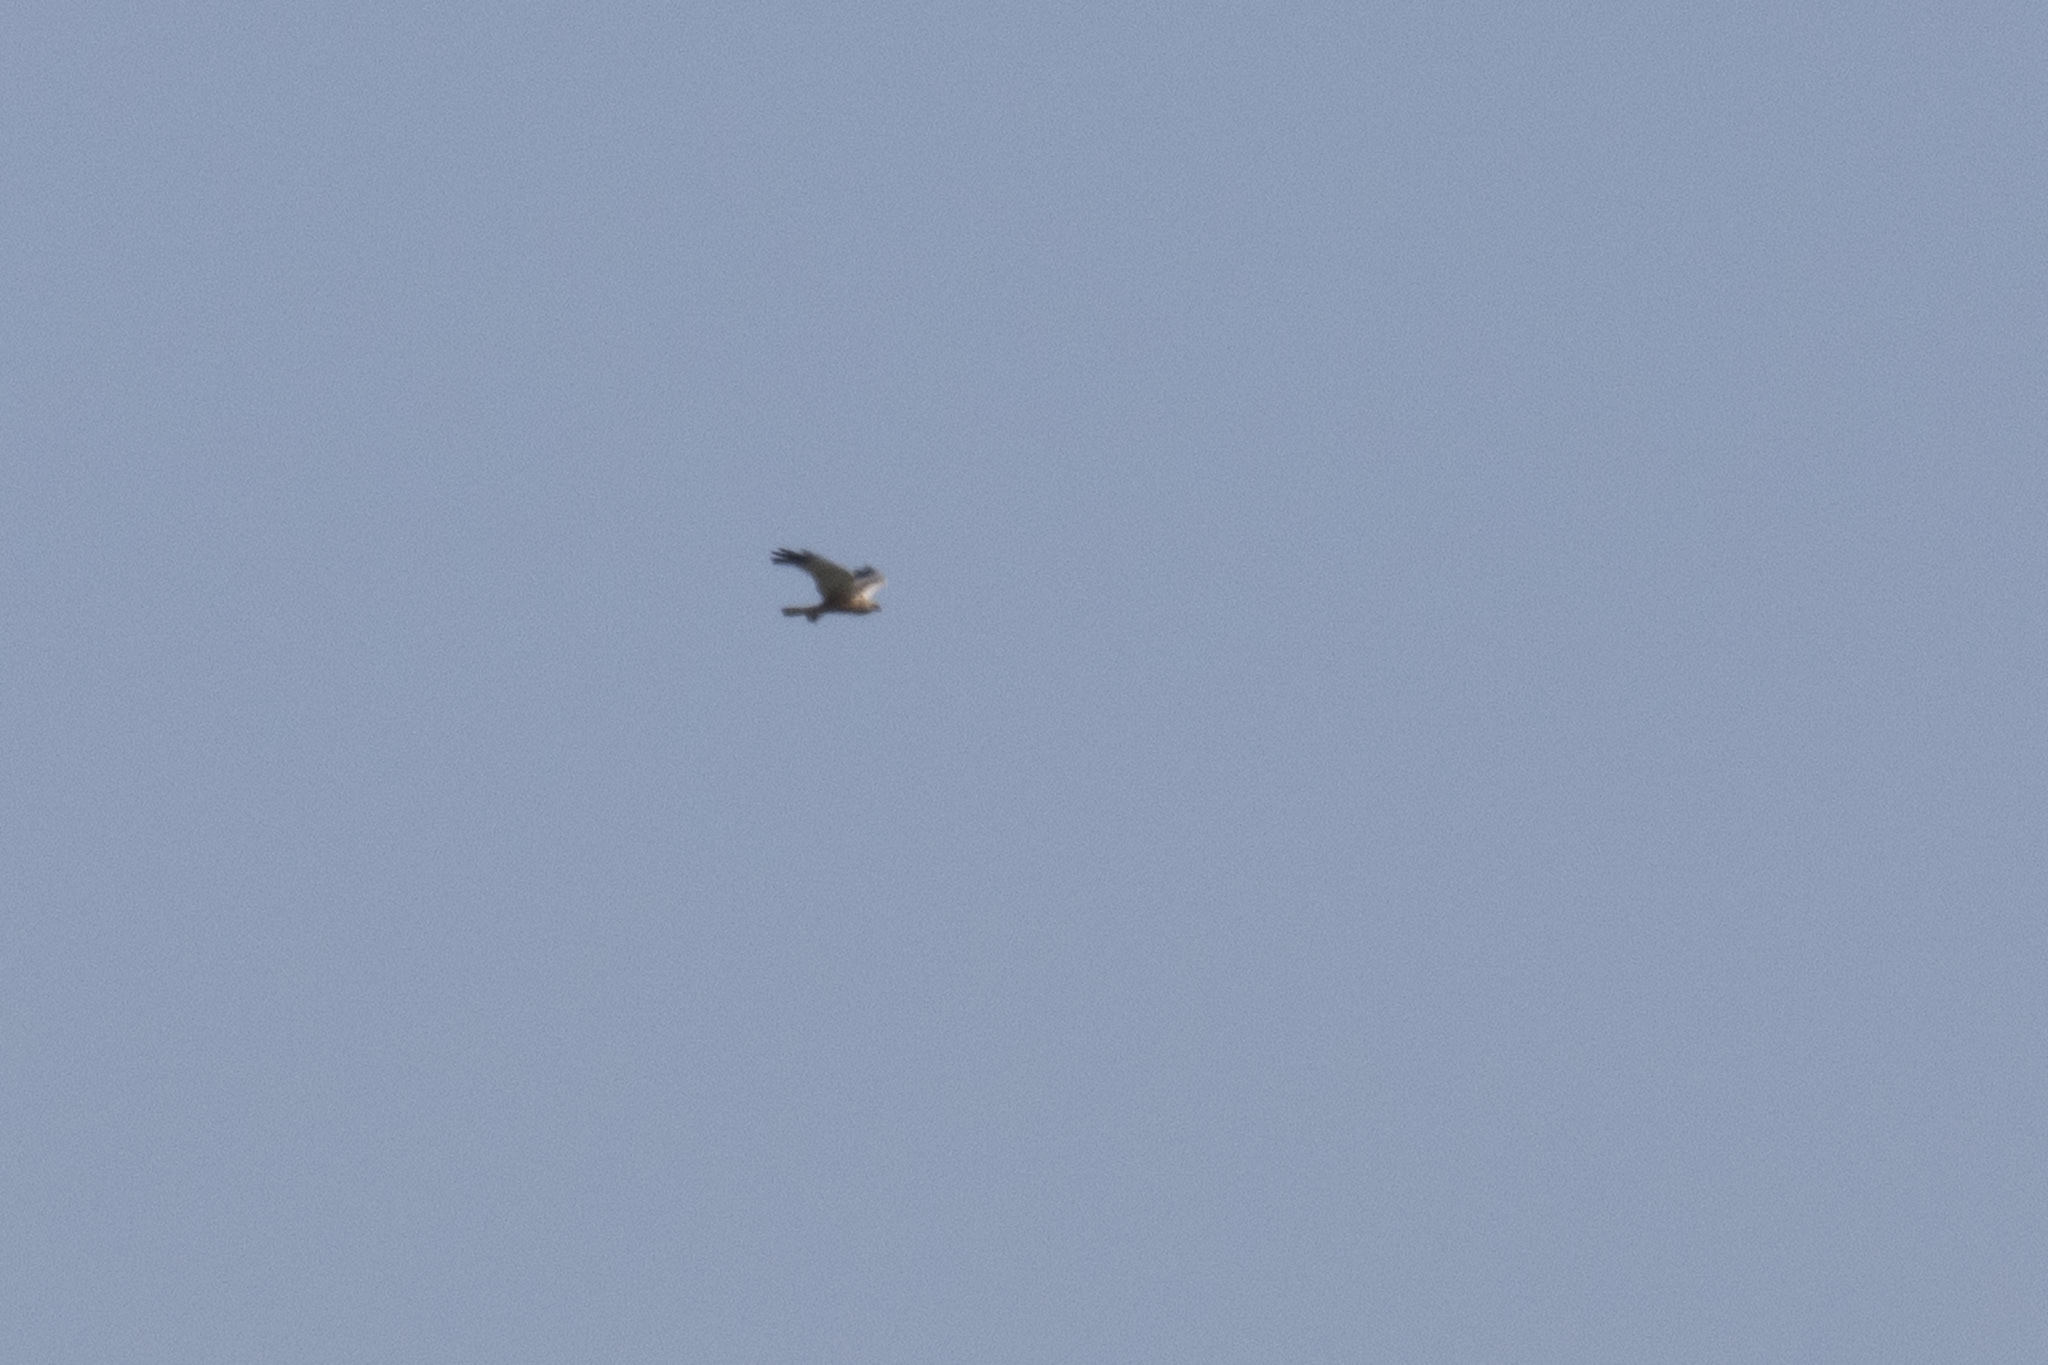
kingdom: Animalia
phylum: Chordata
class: Aves
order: Accipitriformes
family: Accipitridae
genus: Milvus
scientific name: Milvus milvus
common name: Red kite
